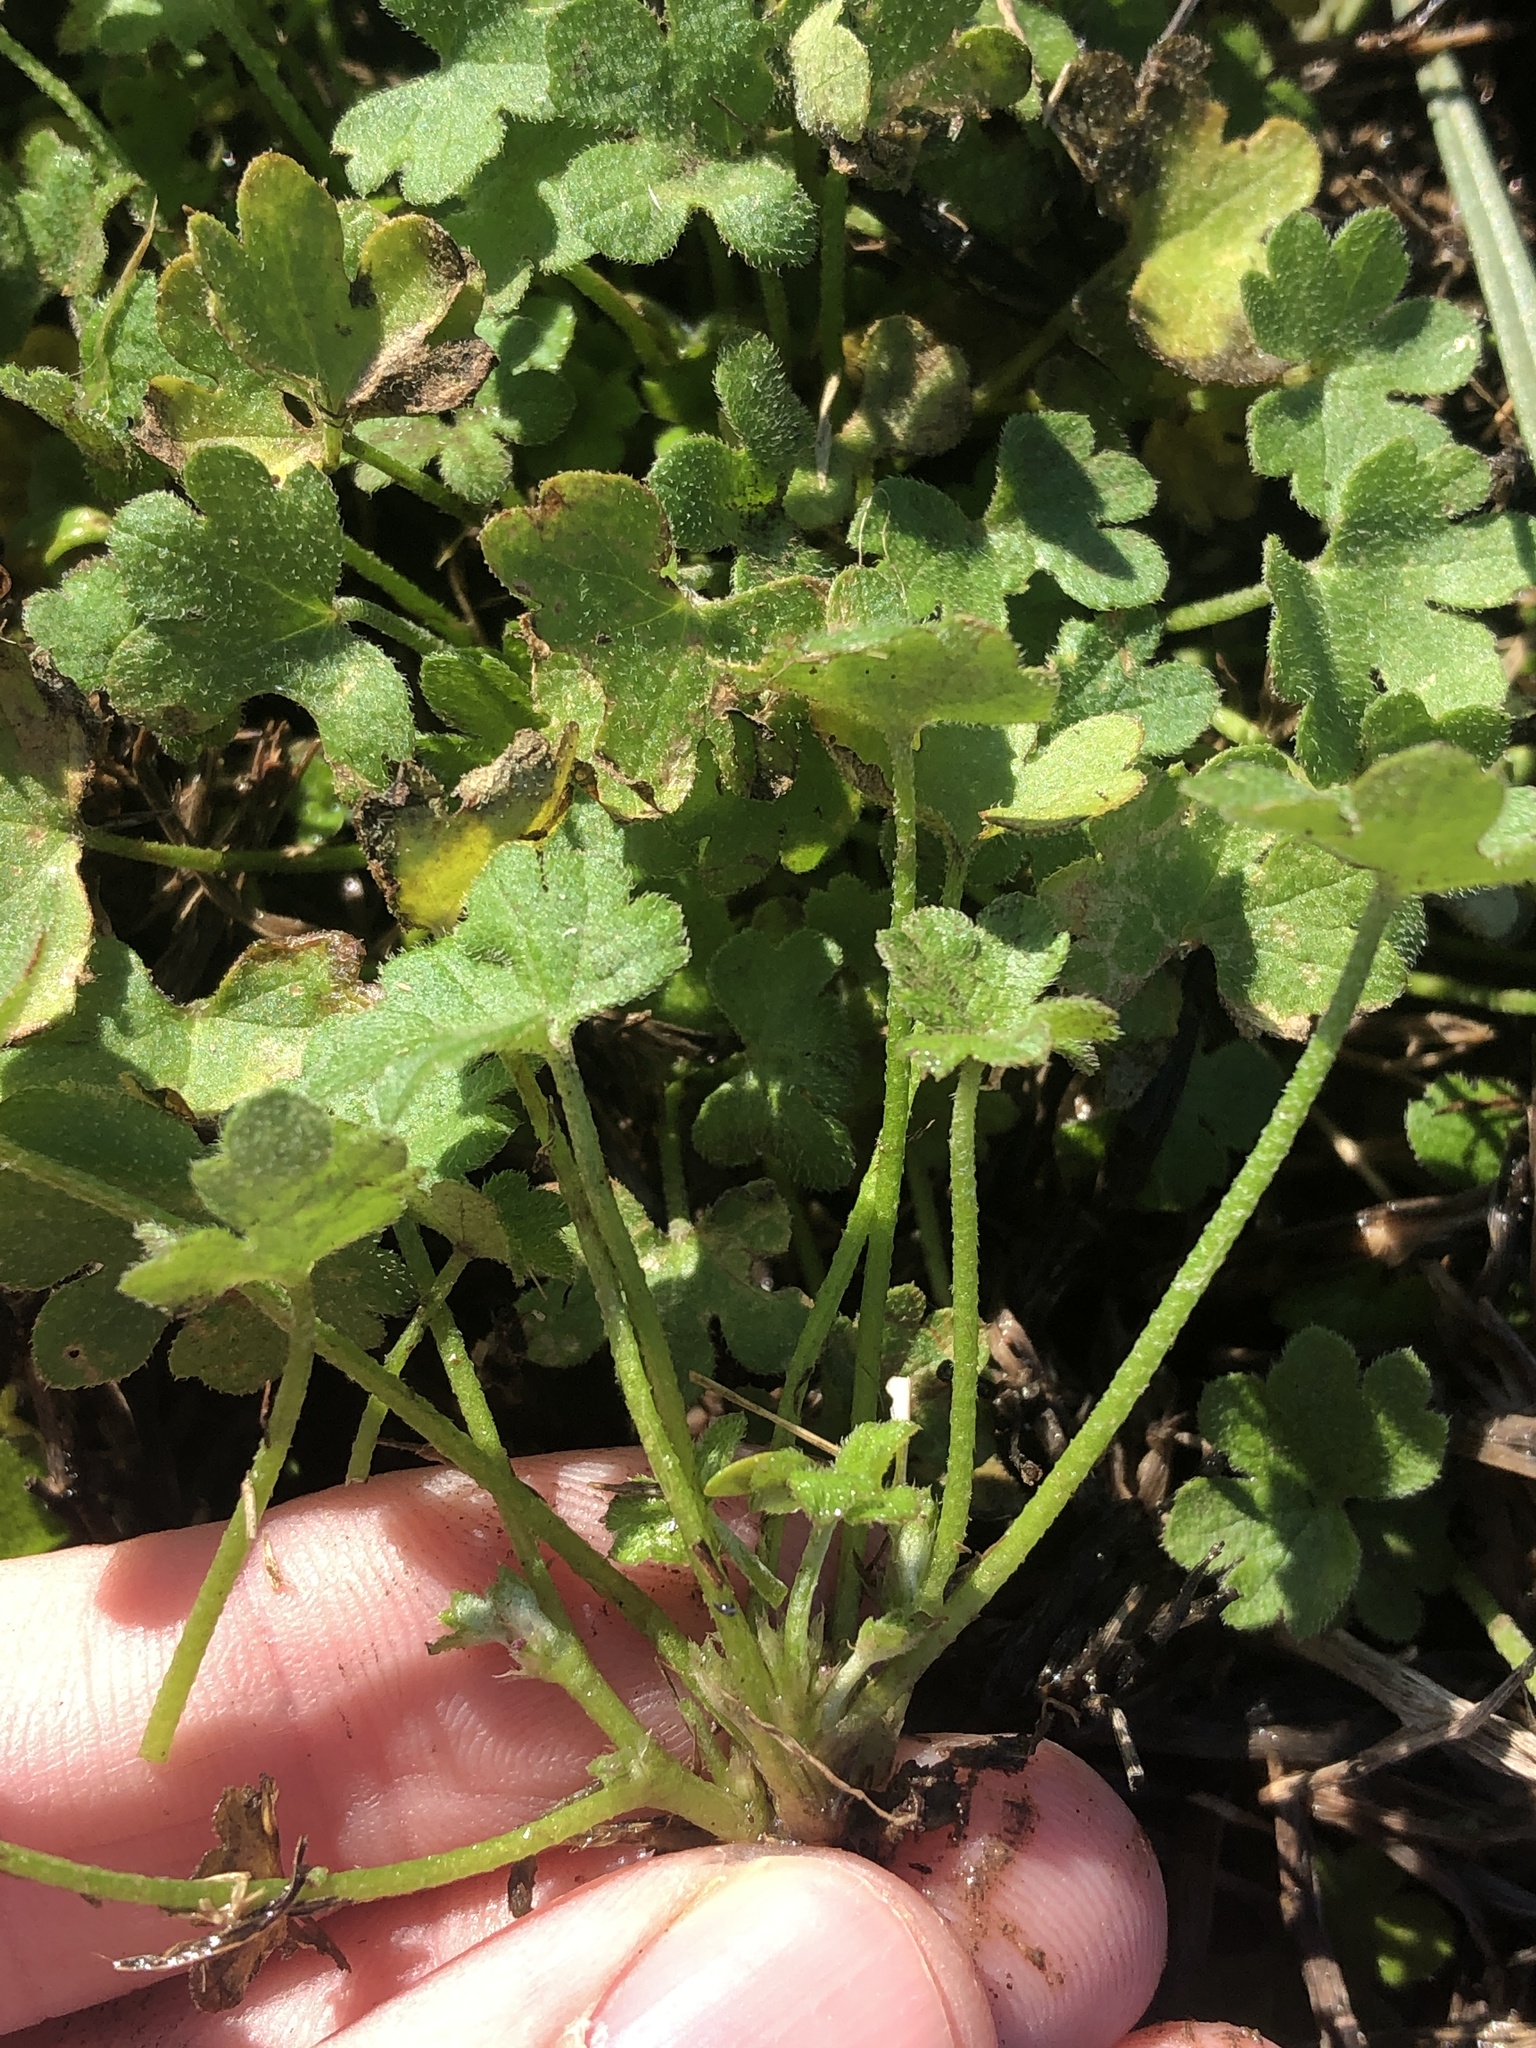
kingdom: Plantae
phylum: Tracheophyta
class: Magnoliopsida
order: Apiales
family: Apiaceae
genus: Bowlesia
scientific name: Bowlesia incana
